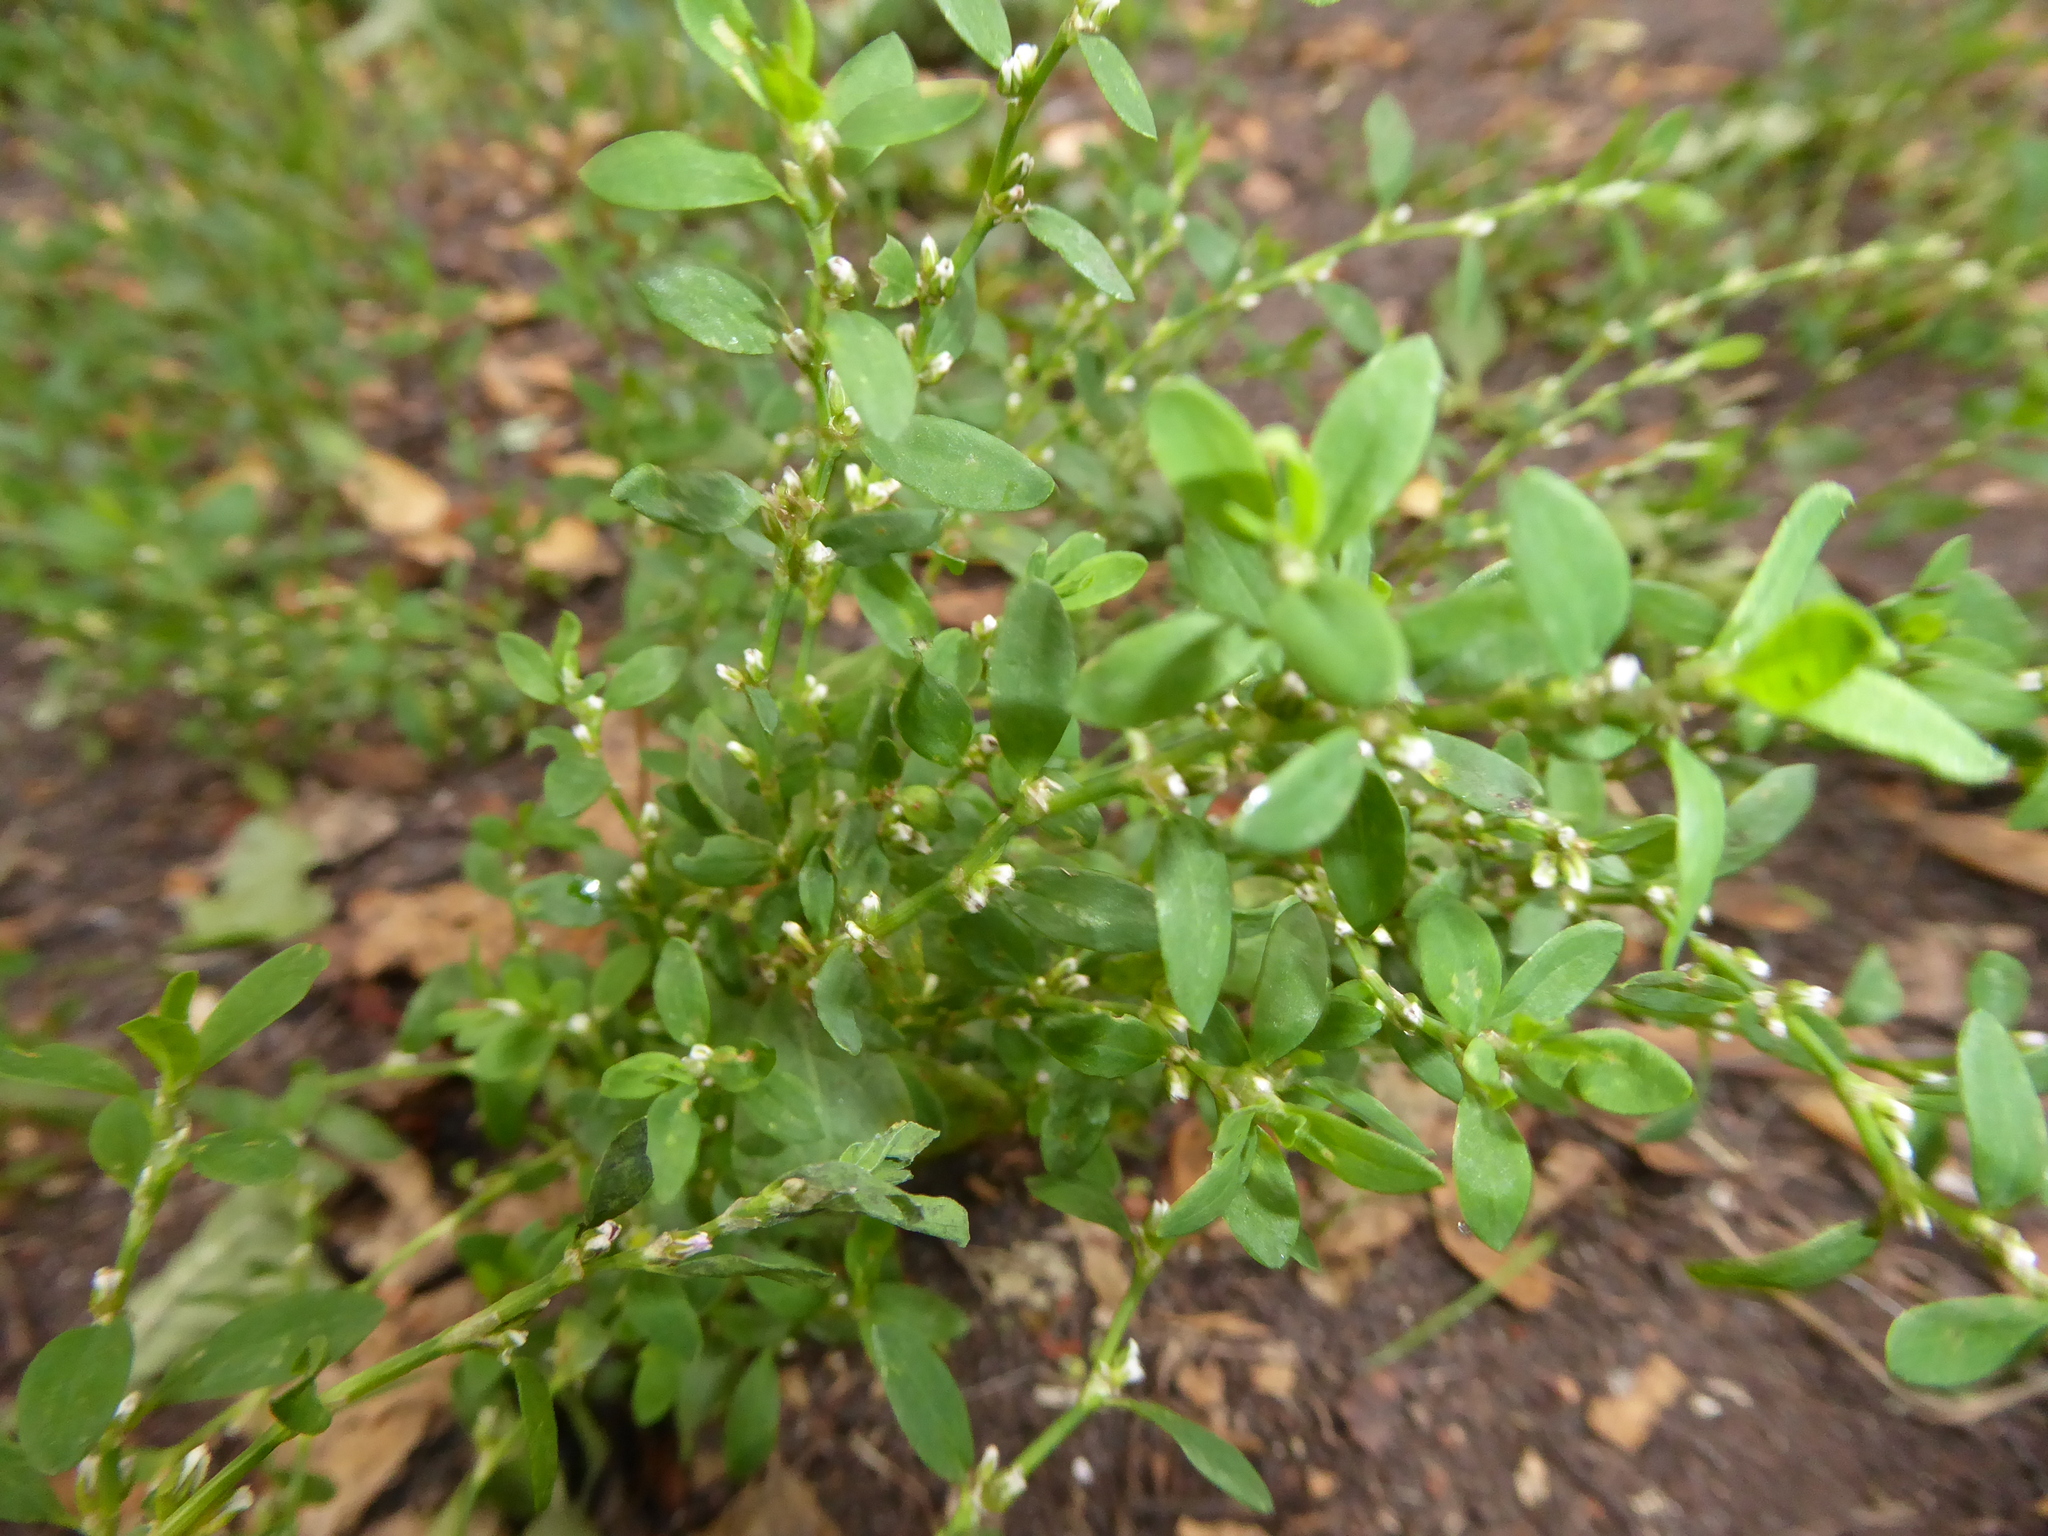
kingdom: Plantae
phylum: Tracheophyta
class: Magnoliopsida
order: Caryophyllales
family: Polygonaceae
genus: Polygonum
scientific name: Polygonum
